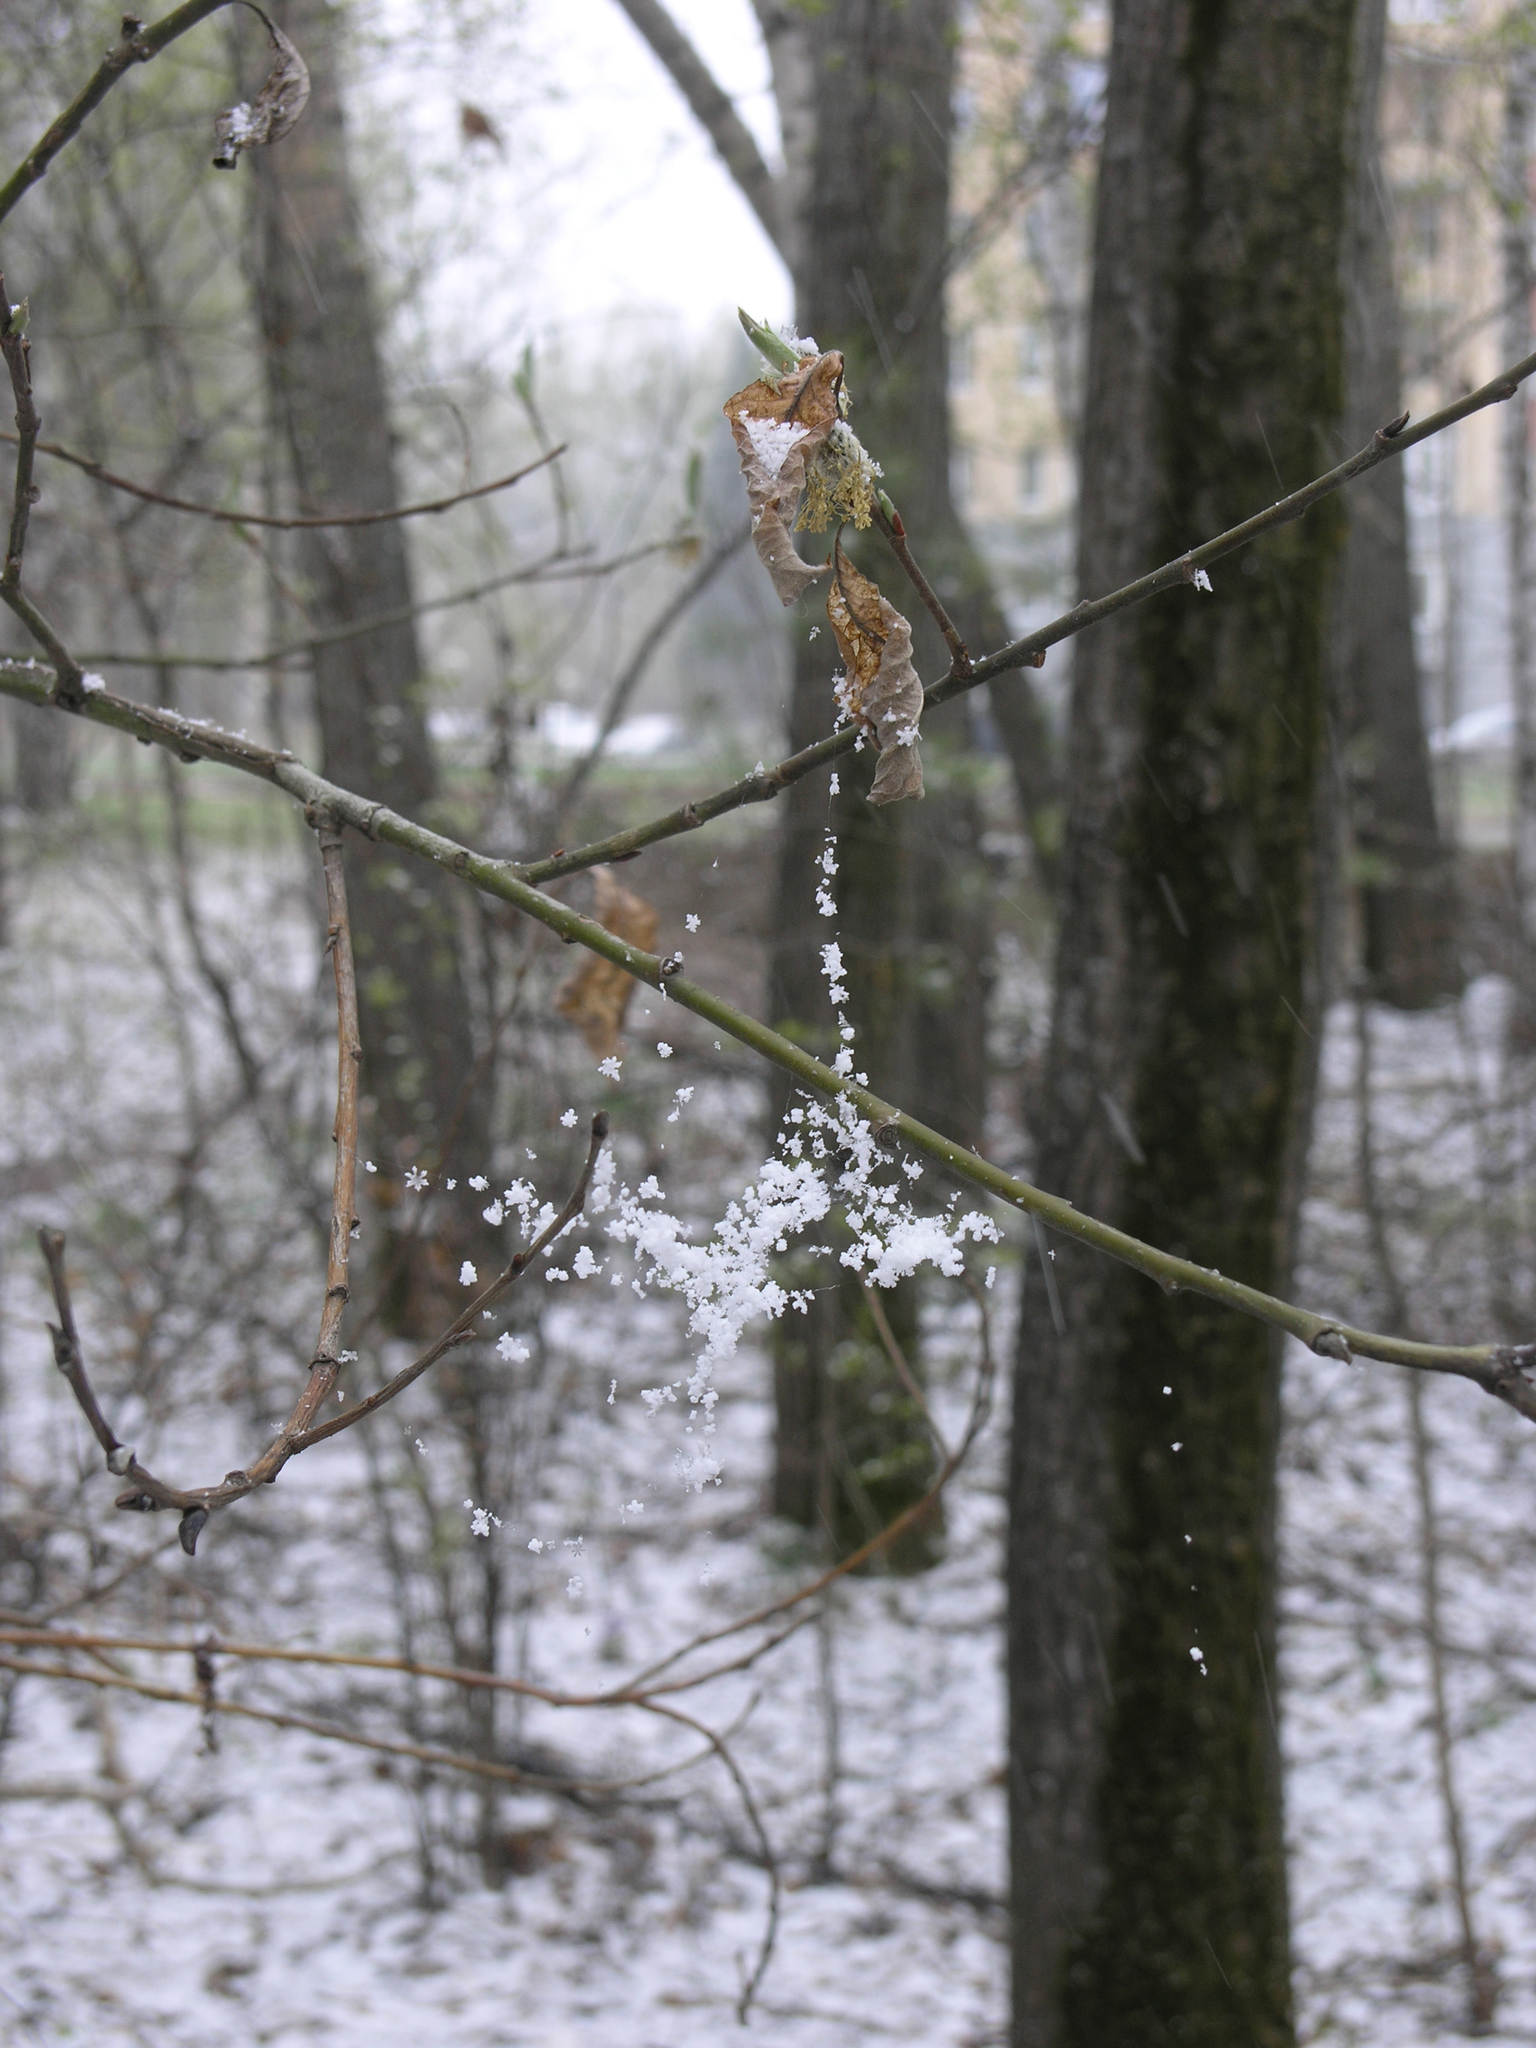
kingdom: Plantae
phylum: Tracheophyta
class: Magnoliopsida
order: Malpighiales
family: Salicaceae
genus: Salix
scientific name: Salix caprea
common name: Goat willow
